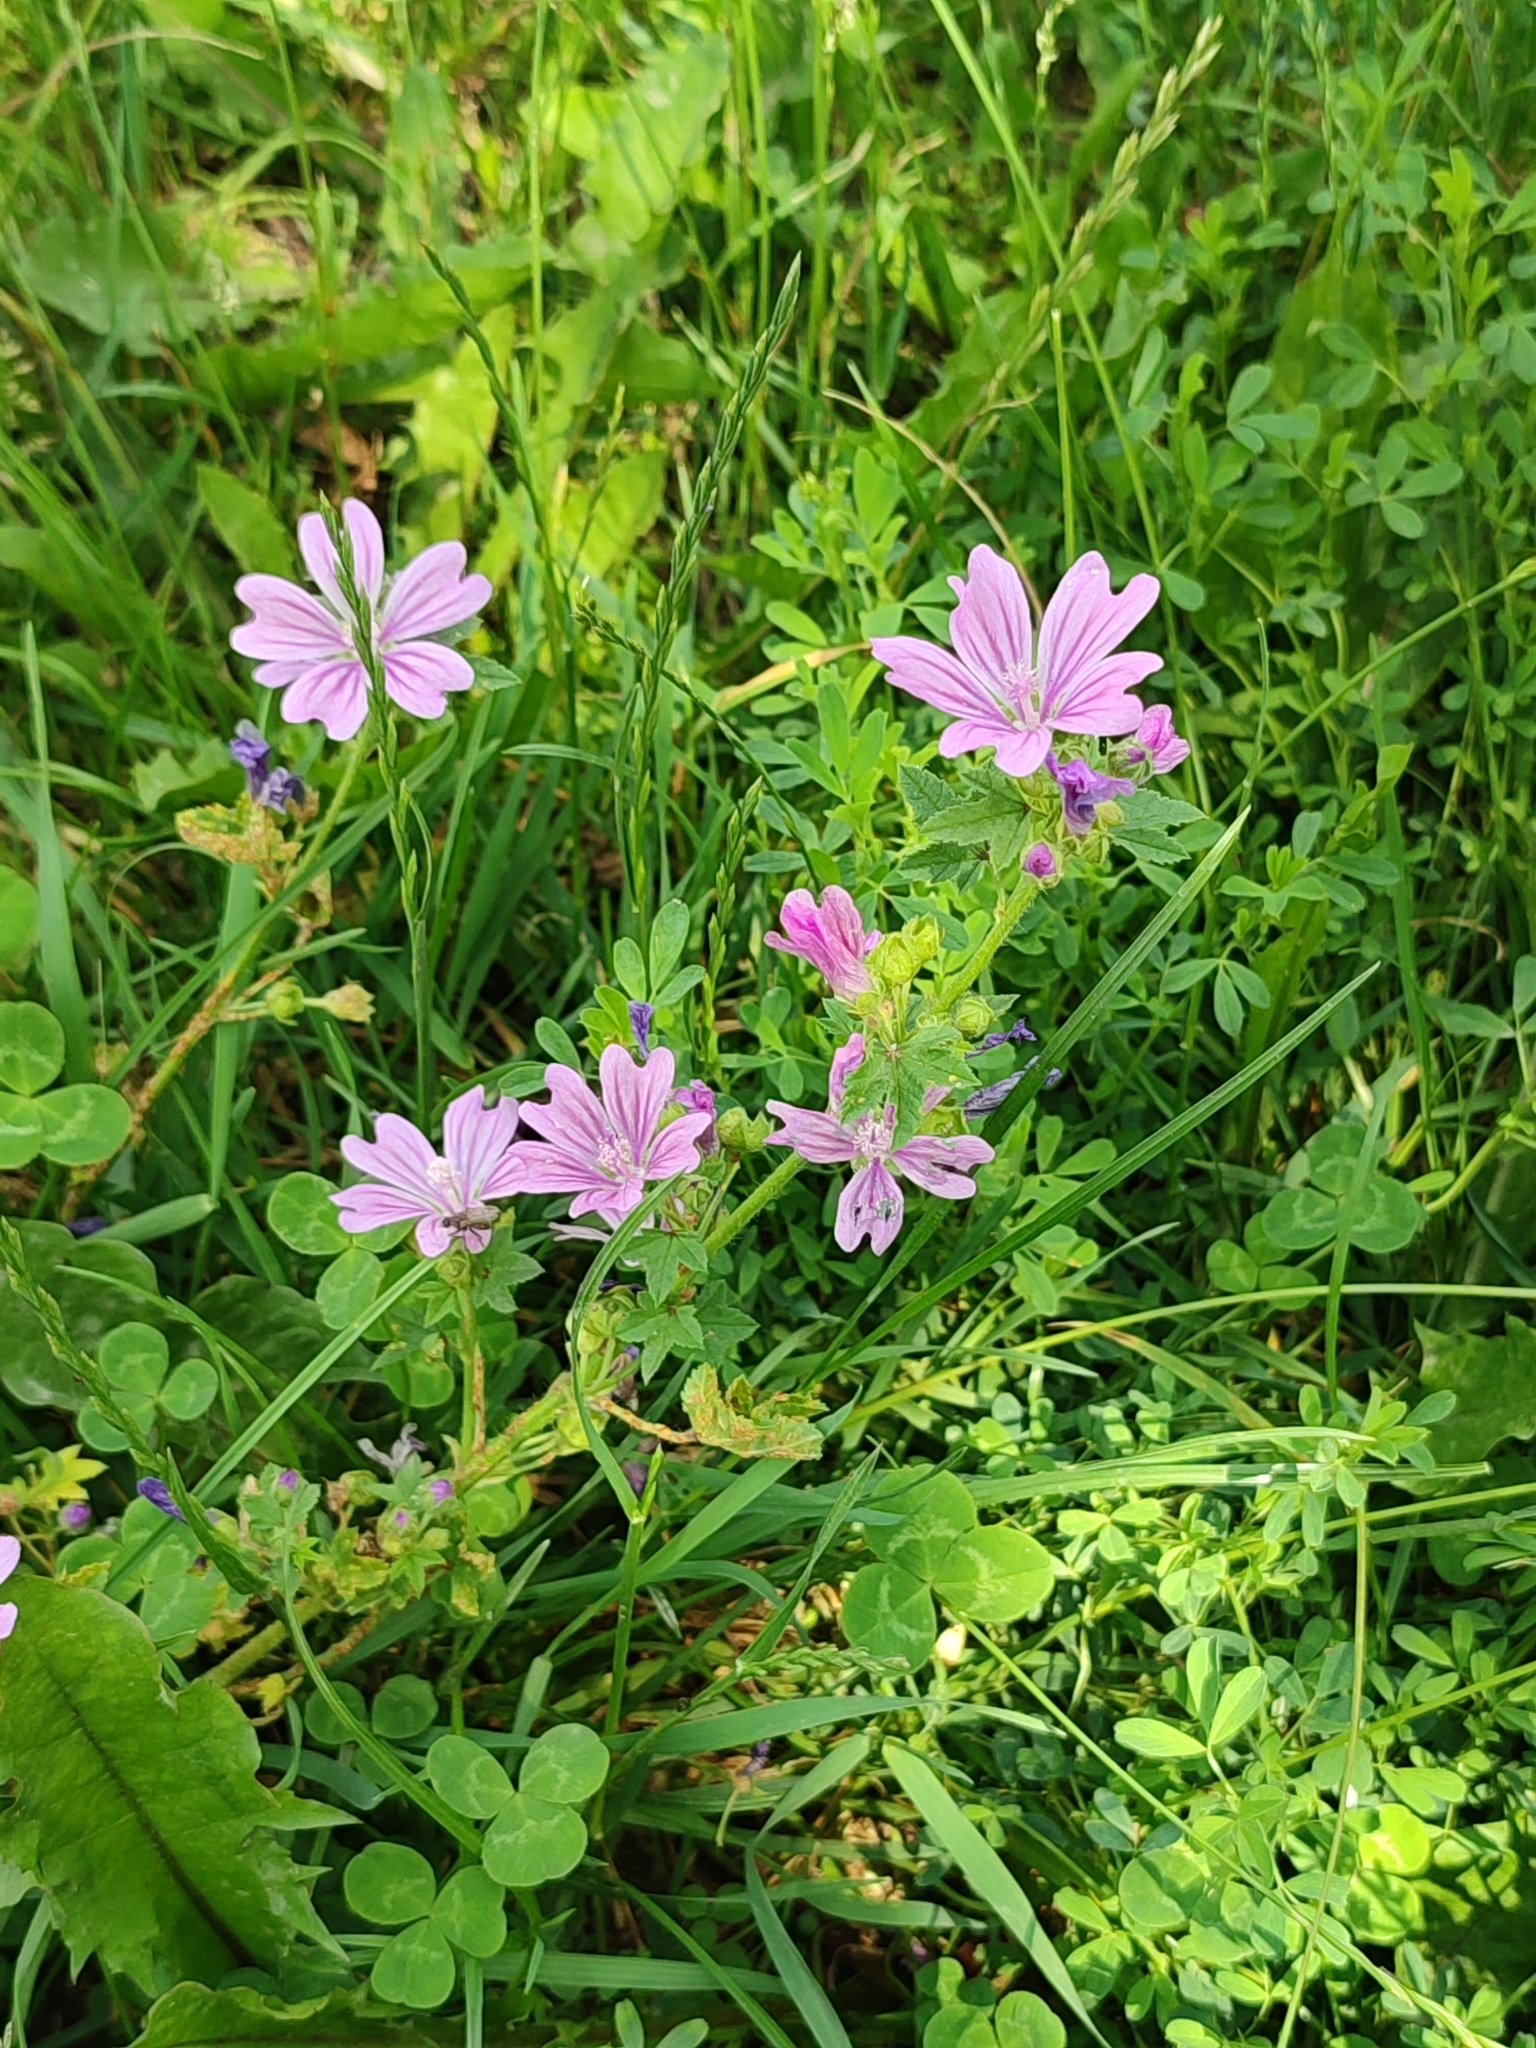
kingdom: Plantae
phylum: Tracheophyta
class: Magnoliopsida
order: Malvales
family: Malvaceae
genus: Malva
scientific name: Malva sylvestris
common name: Common mallow
